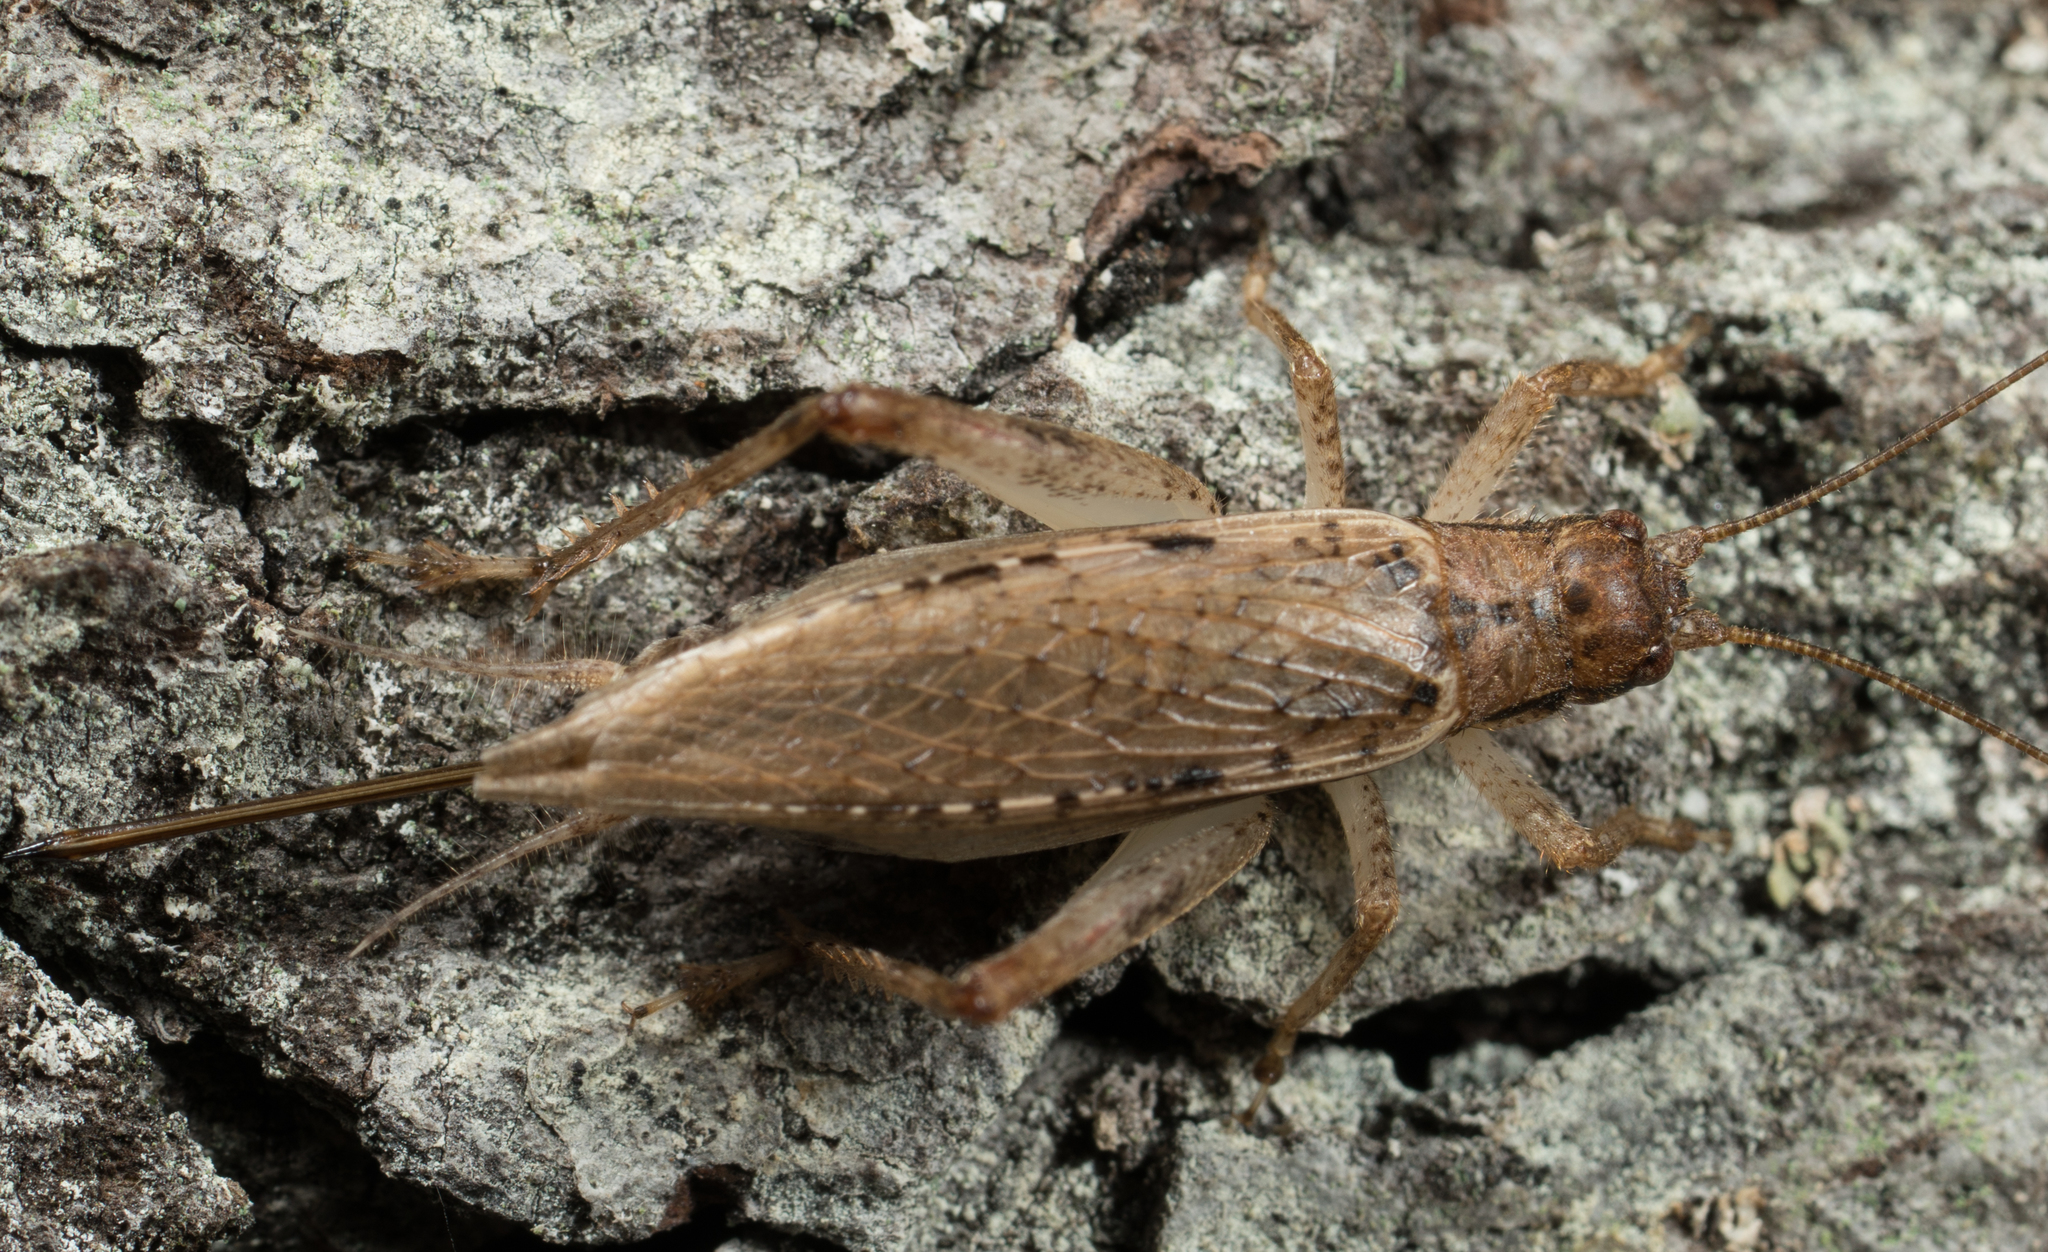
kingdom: Animalia
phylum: Arthropoda
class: Insecta
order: Orthoptera
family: Gryllidae
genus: Hapithus
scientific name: Hapithus saltator
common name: Jumping bush cricket
